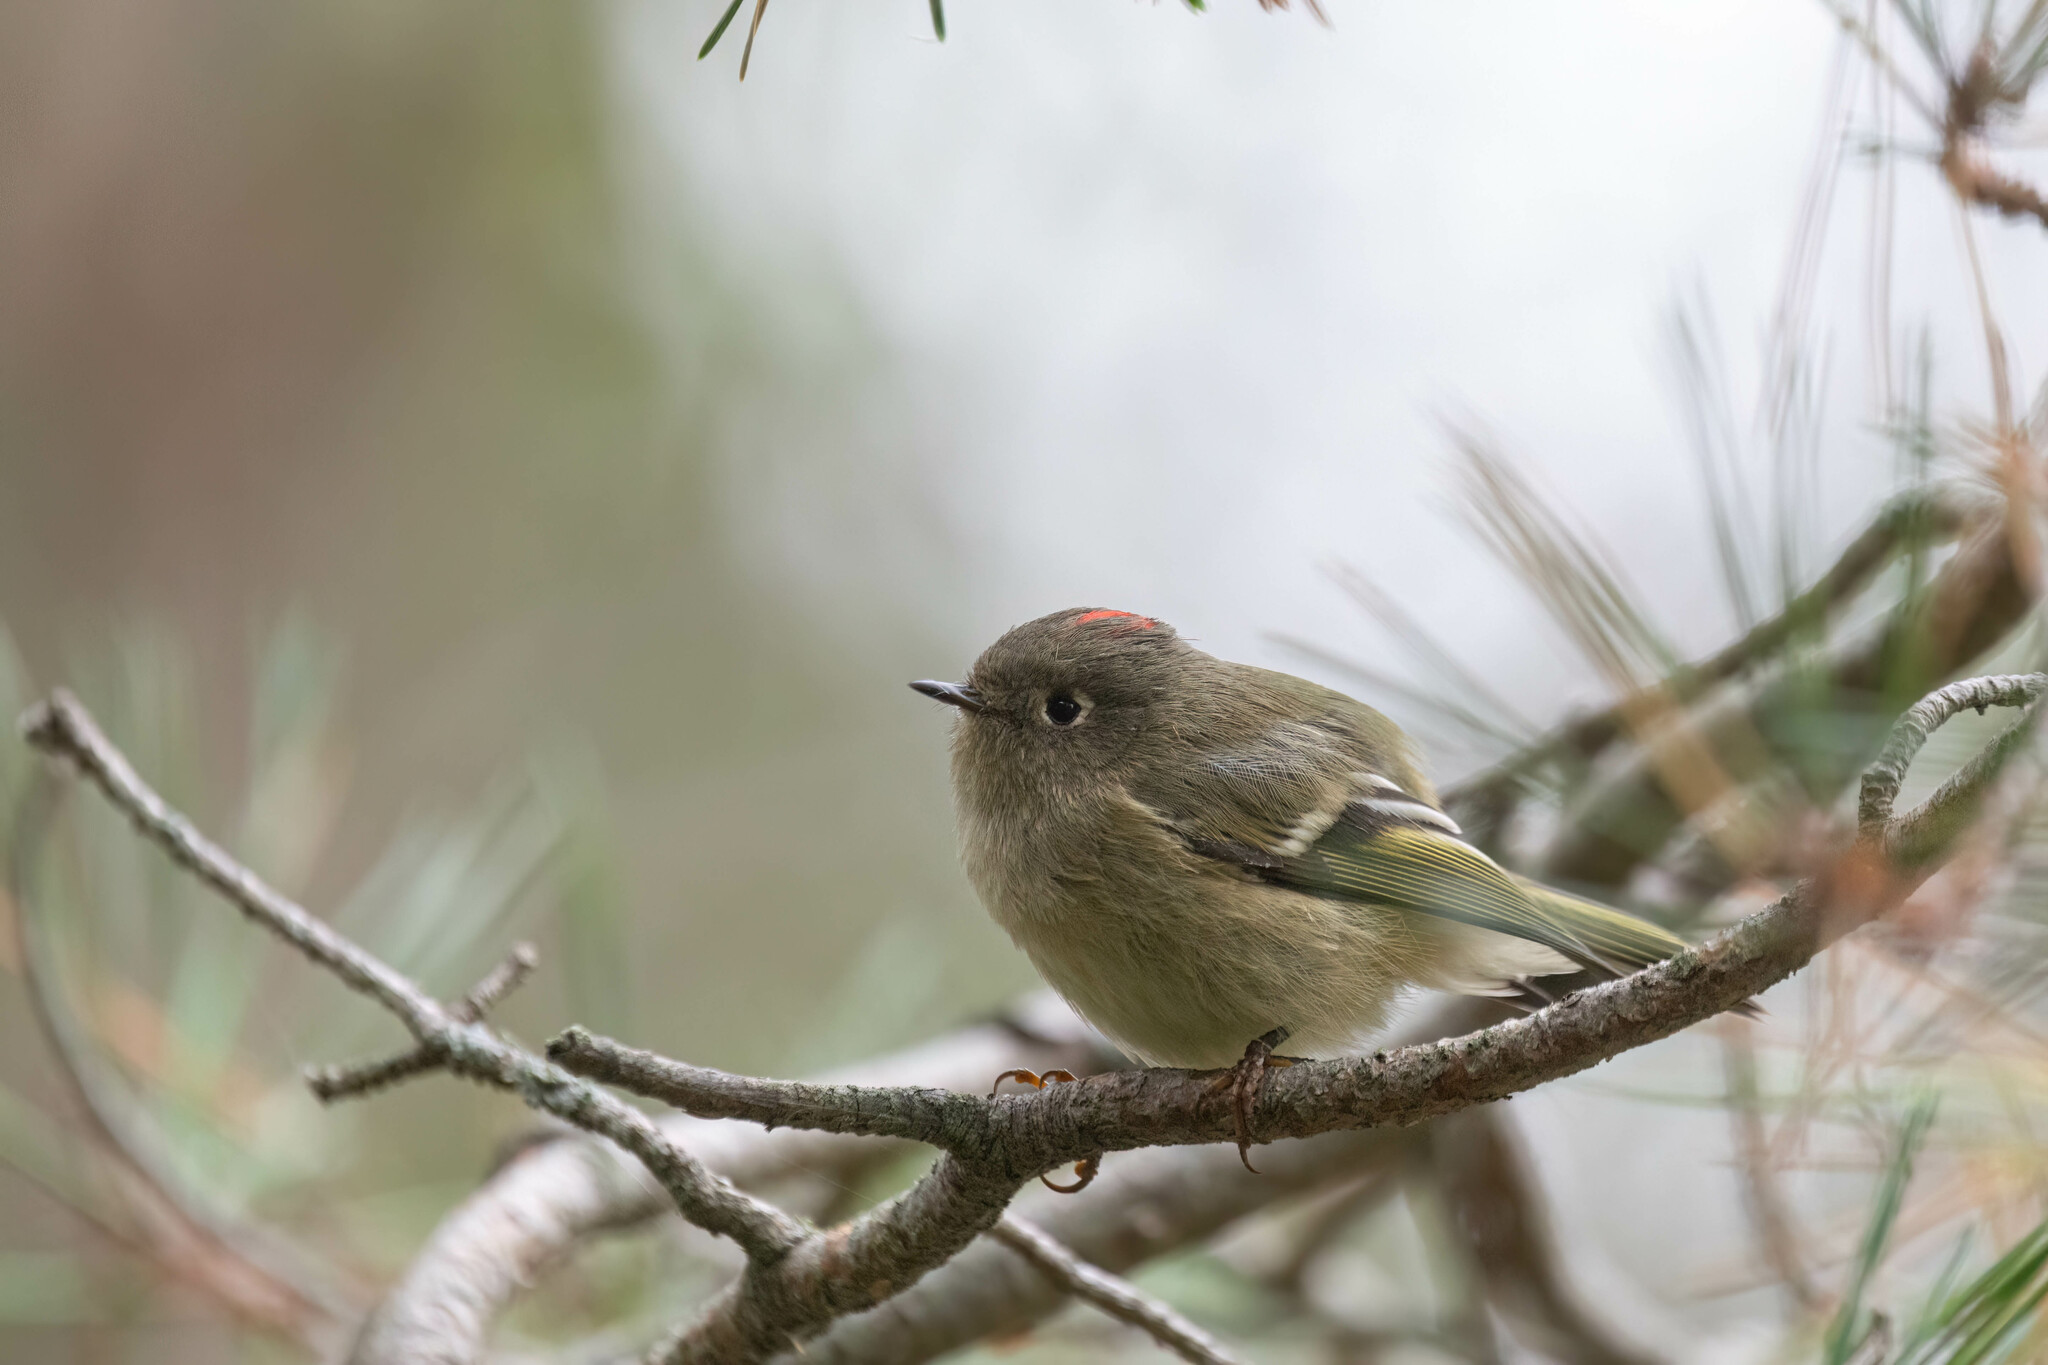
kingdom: Animalia
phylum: Chordata
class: Aves
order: Passeriformes
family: Regulidae
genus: Regulus
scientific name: Regulus calendula
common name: Ruby-crowned kinglet
